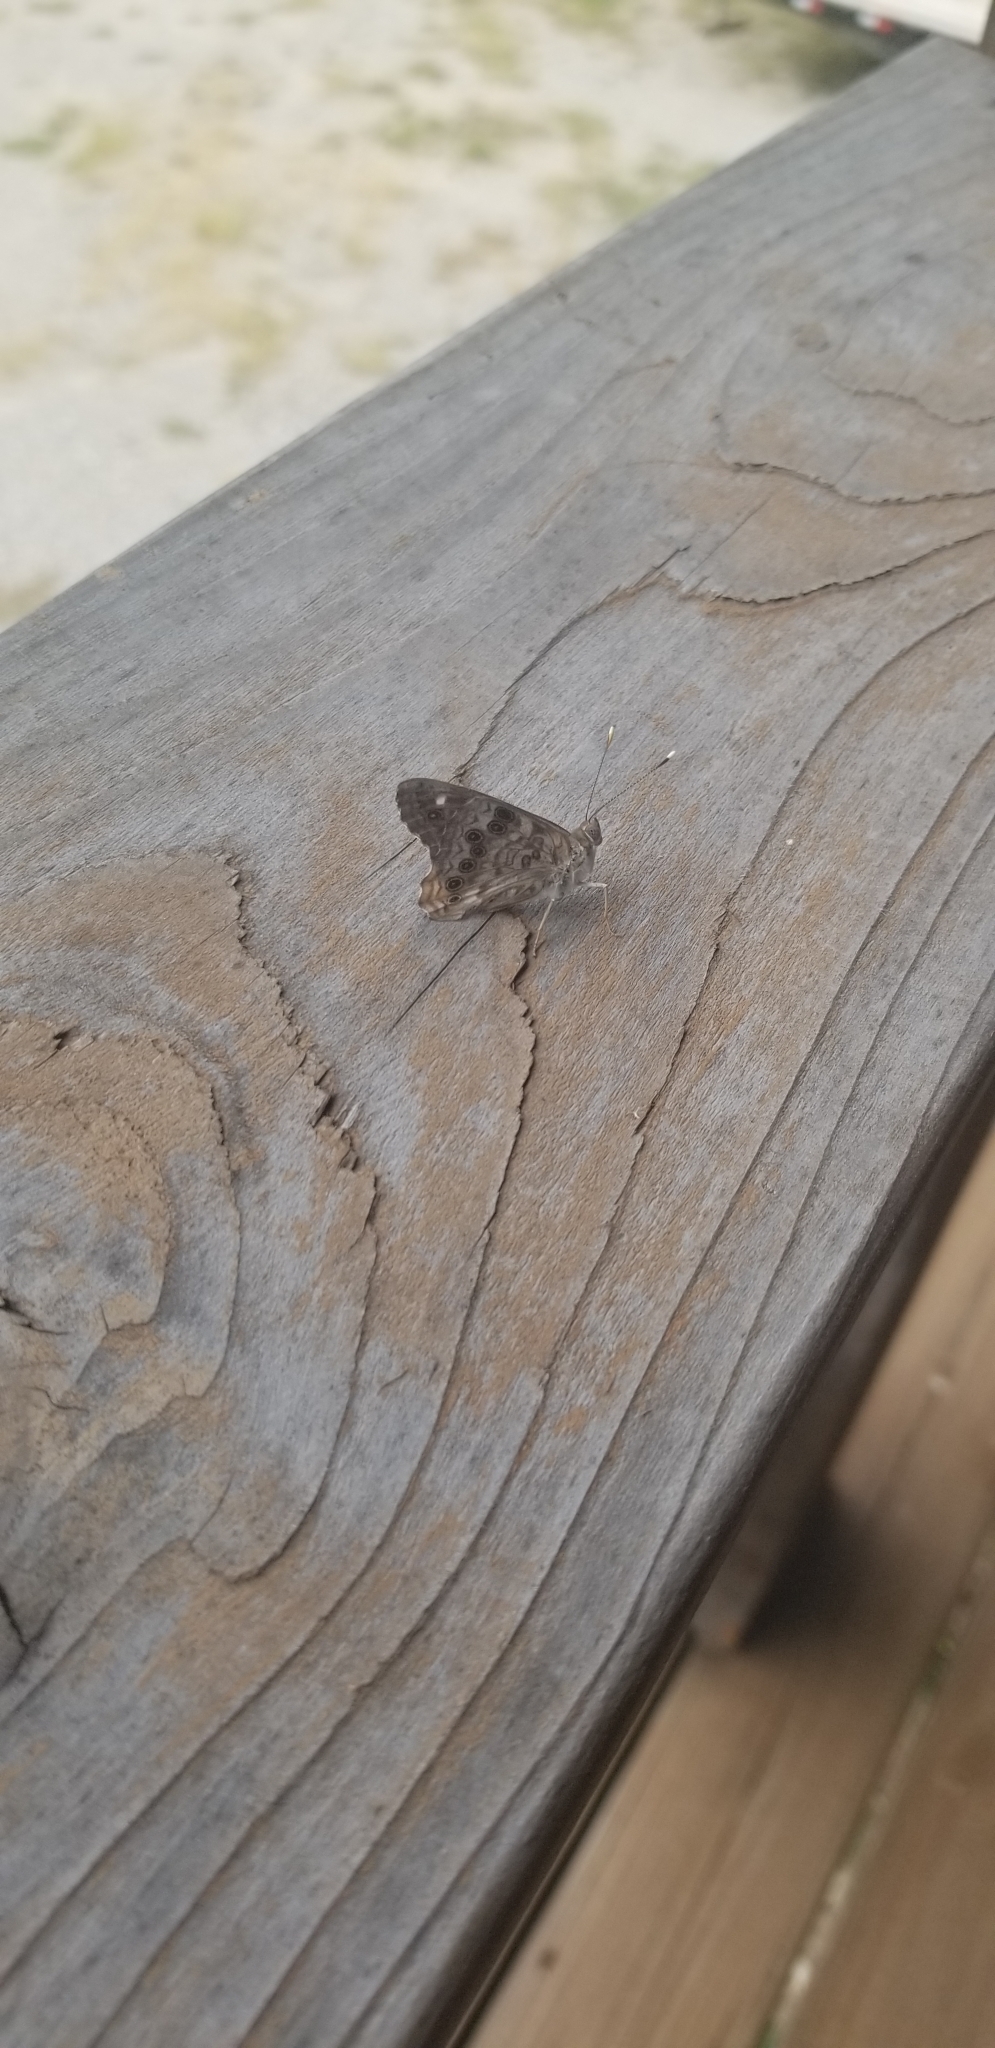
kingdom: Animalia
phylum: Arthropoda
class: Insecta
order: Lepidoptera
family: Nymphalidae
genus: Asterocampa
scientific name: Asterocampa celtis
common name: Hackberry emperor
